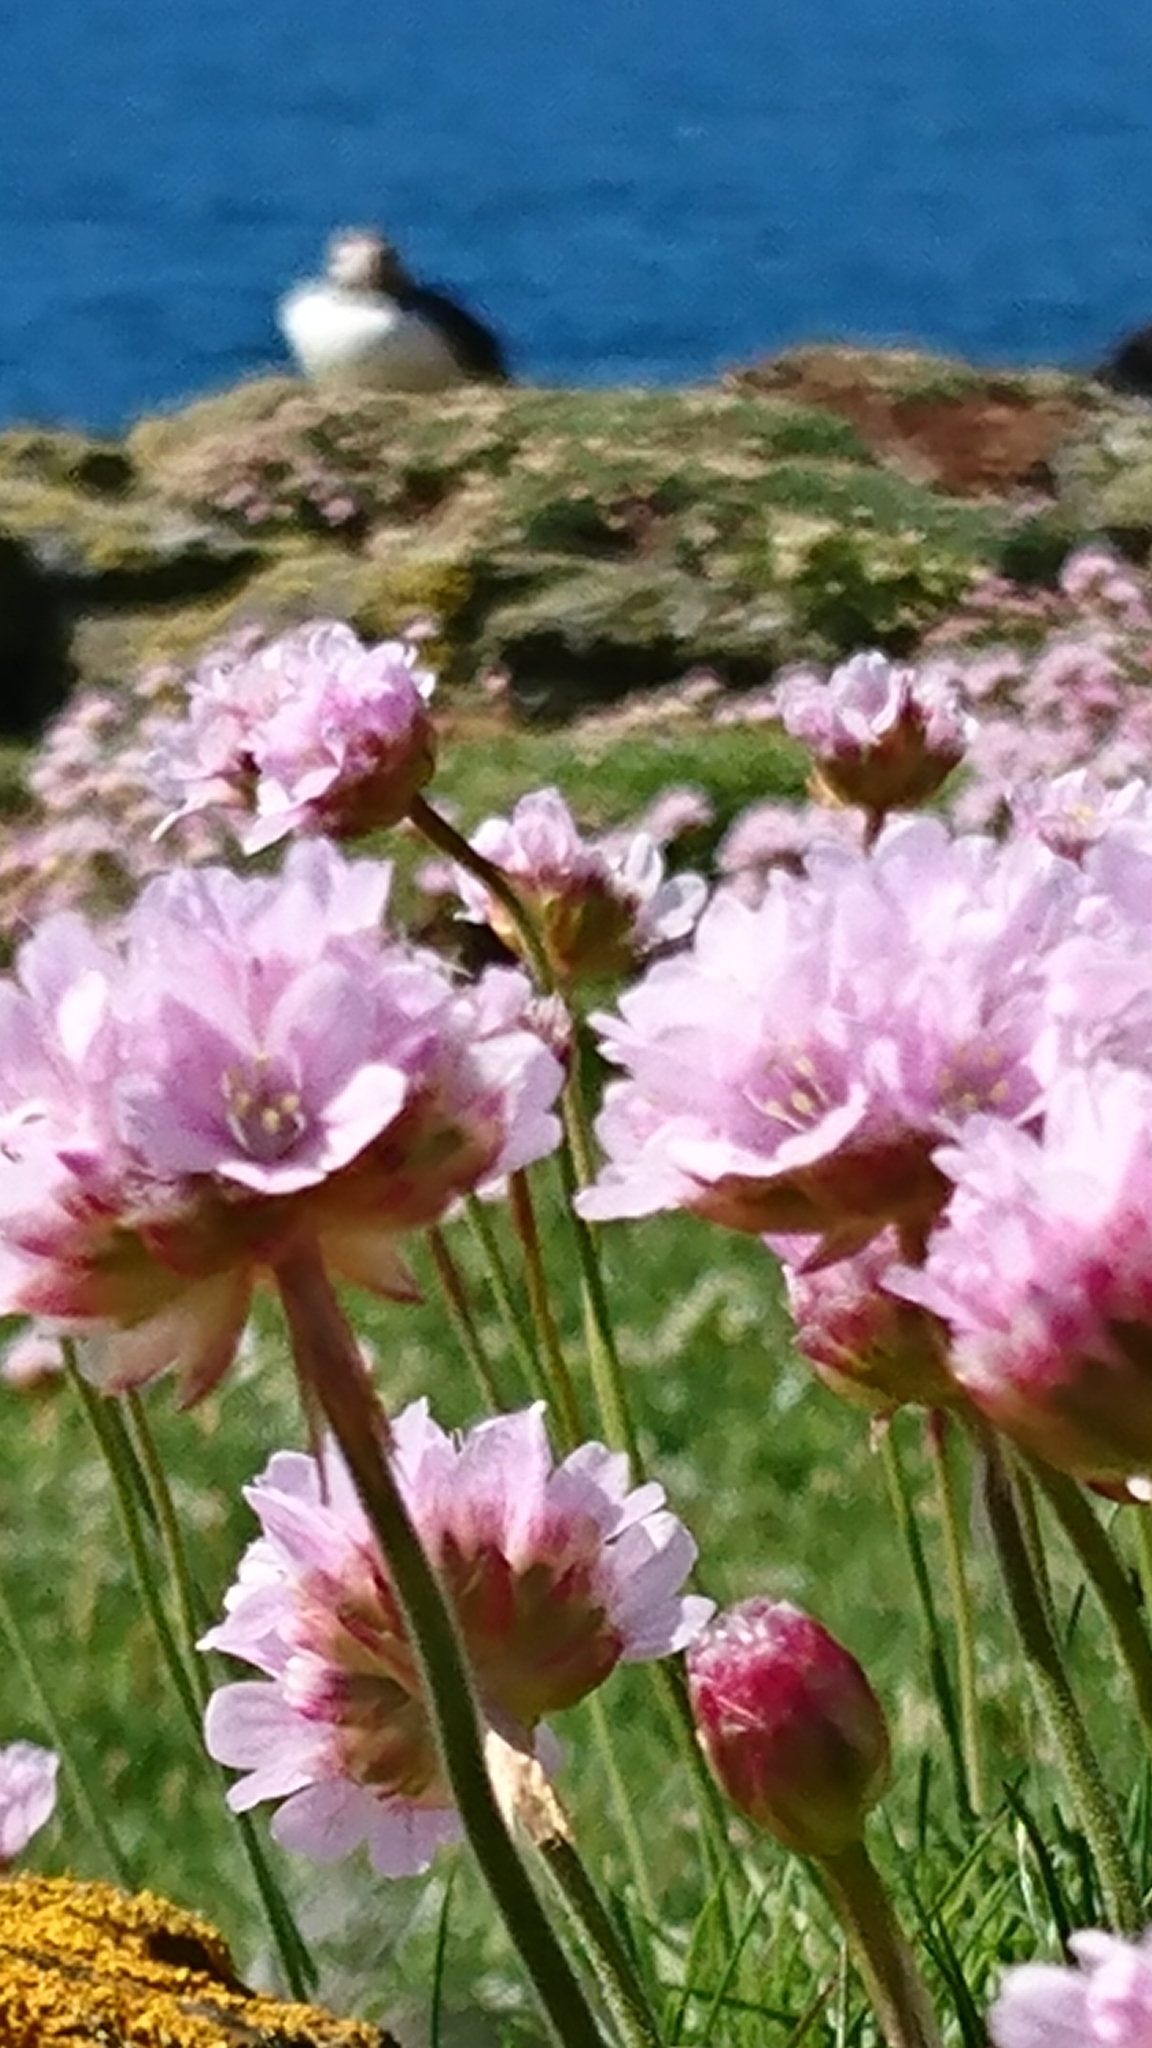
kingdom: Plantae
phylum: Tracheophyta
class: Magnoliopsida
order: Caryophyllales
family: Plumbaginaceae
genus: Armeria
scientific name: Armeria maritima
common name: Thrift
